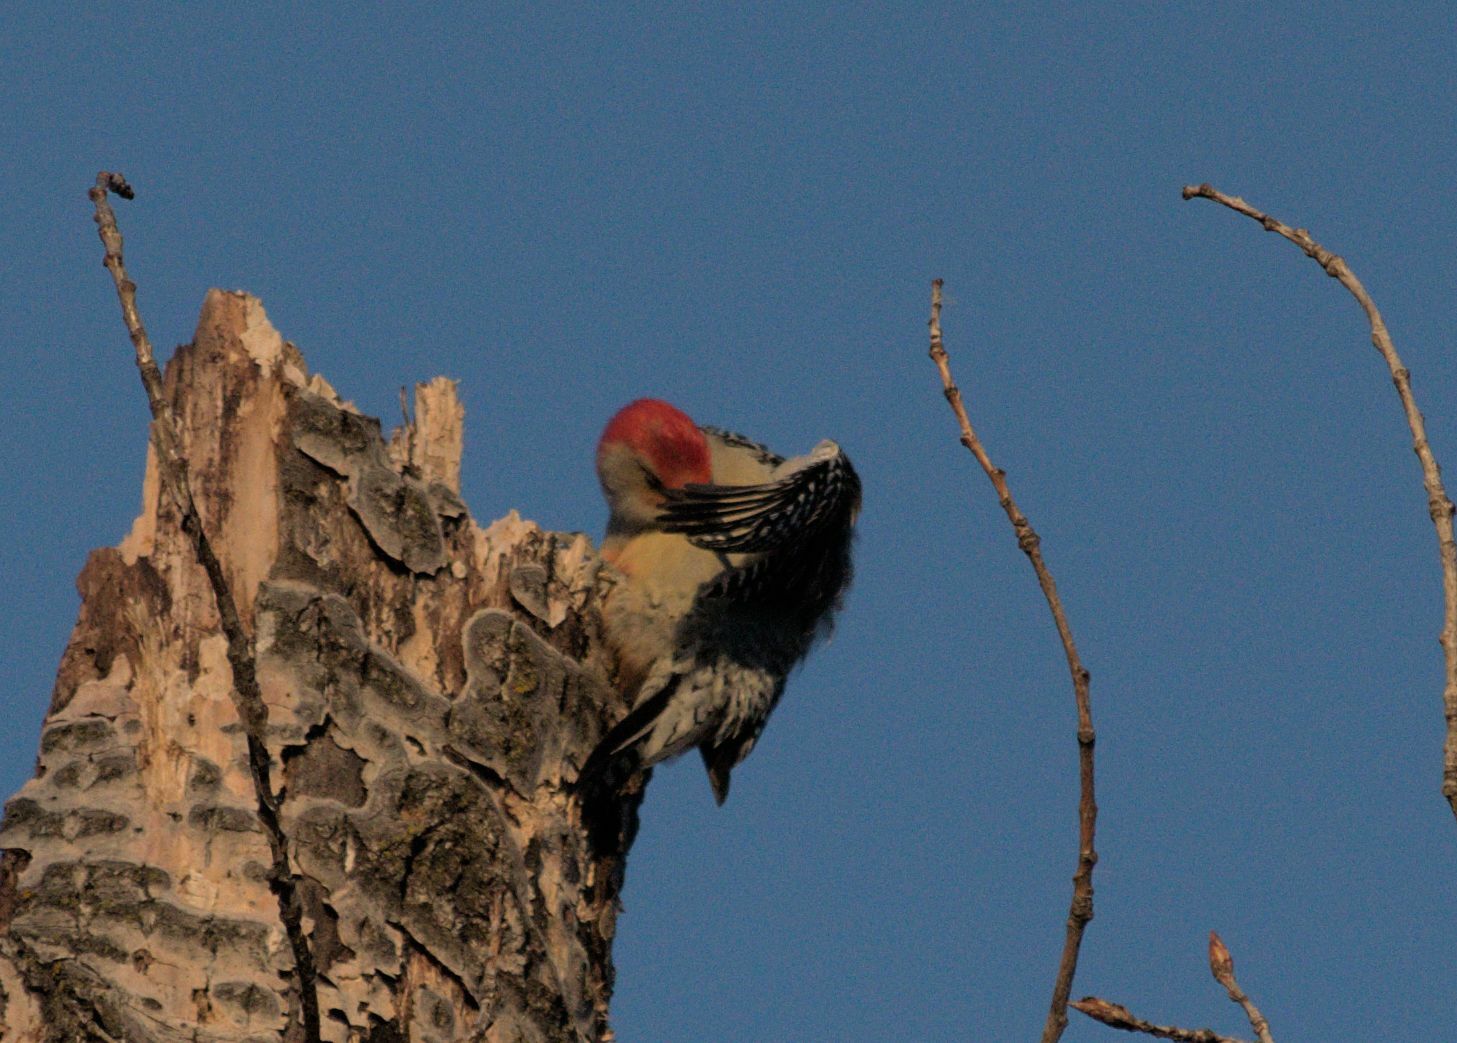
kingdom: Animalia
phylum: Chordata
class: Aves
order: Piciformes
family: Picidae
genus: Melanerpes
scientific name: Melanerpes carolinus
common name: Red-bellied woodpecker
